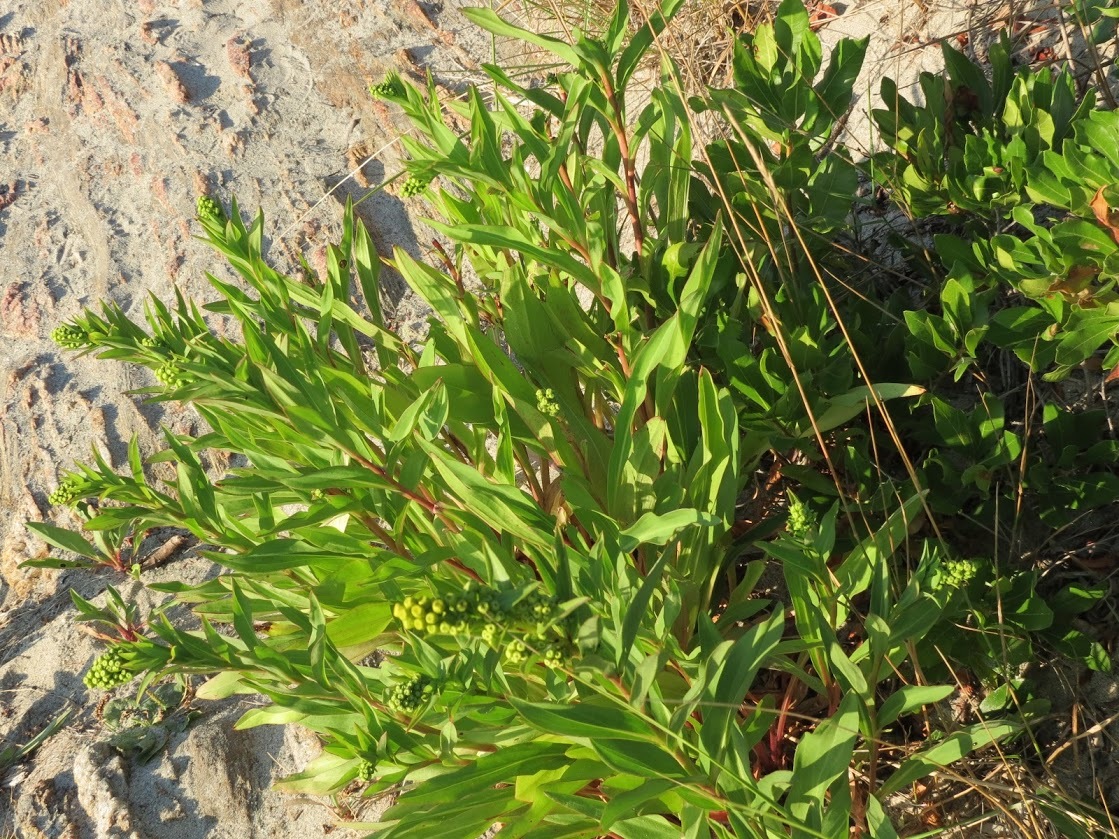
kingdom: Plantae
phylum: Tracheophyta
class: Magnoliopsida
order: Asterales
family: Asteraceae
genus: Solidago
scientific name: Solidago sempervirens
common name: Salt-marsh goldenrod
